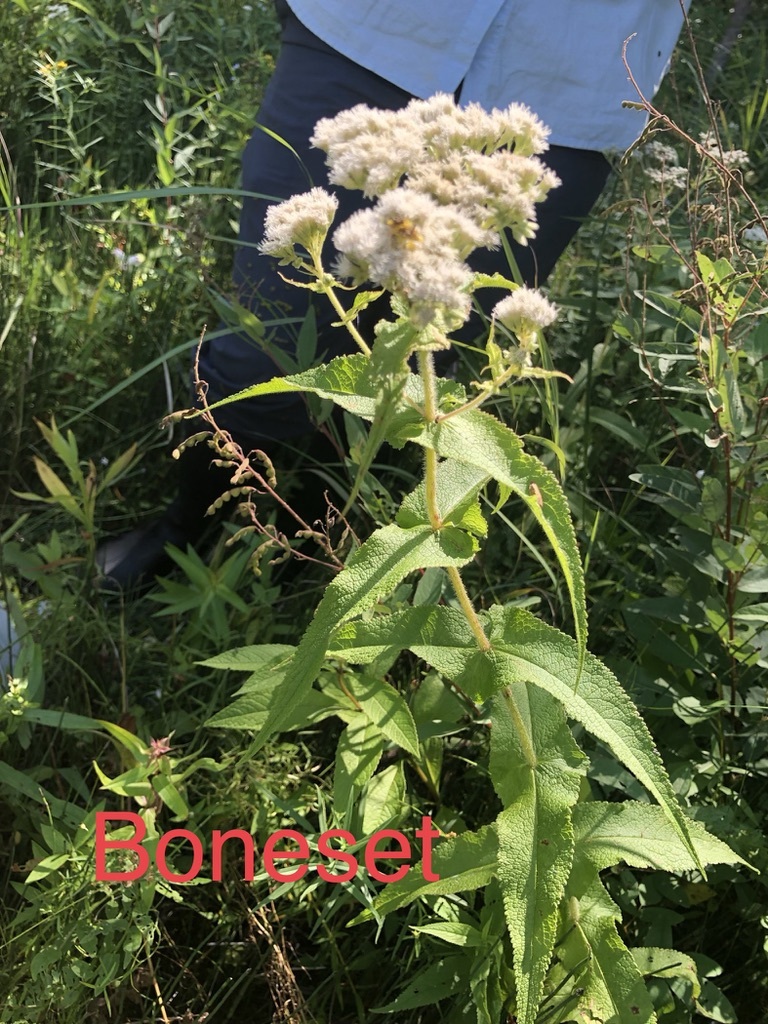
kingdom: Plantae
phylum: Tracheophyta
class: Magnoliopsida
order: Asterales
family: Asteraceae
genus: Eupatorium
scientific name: Eupatorium perfoliatum
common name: Boneset
